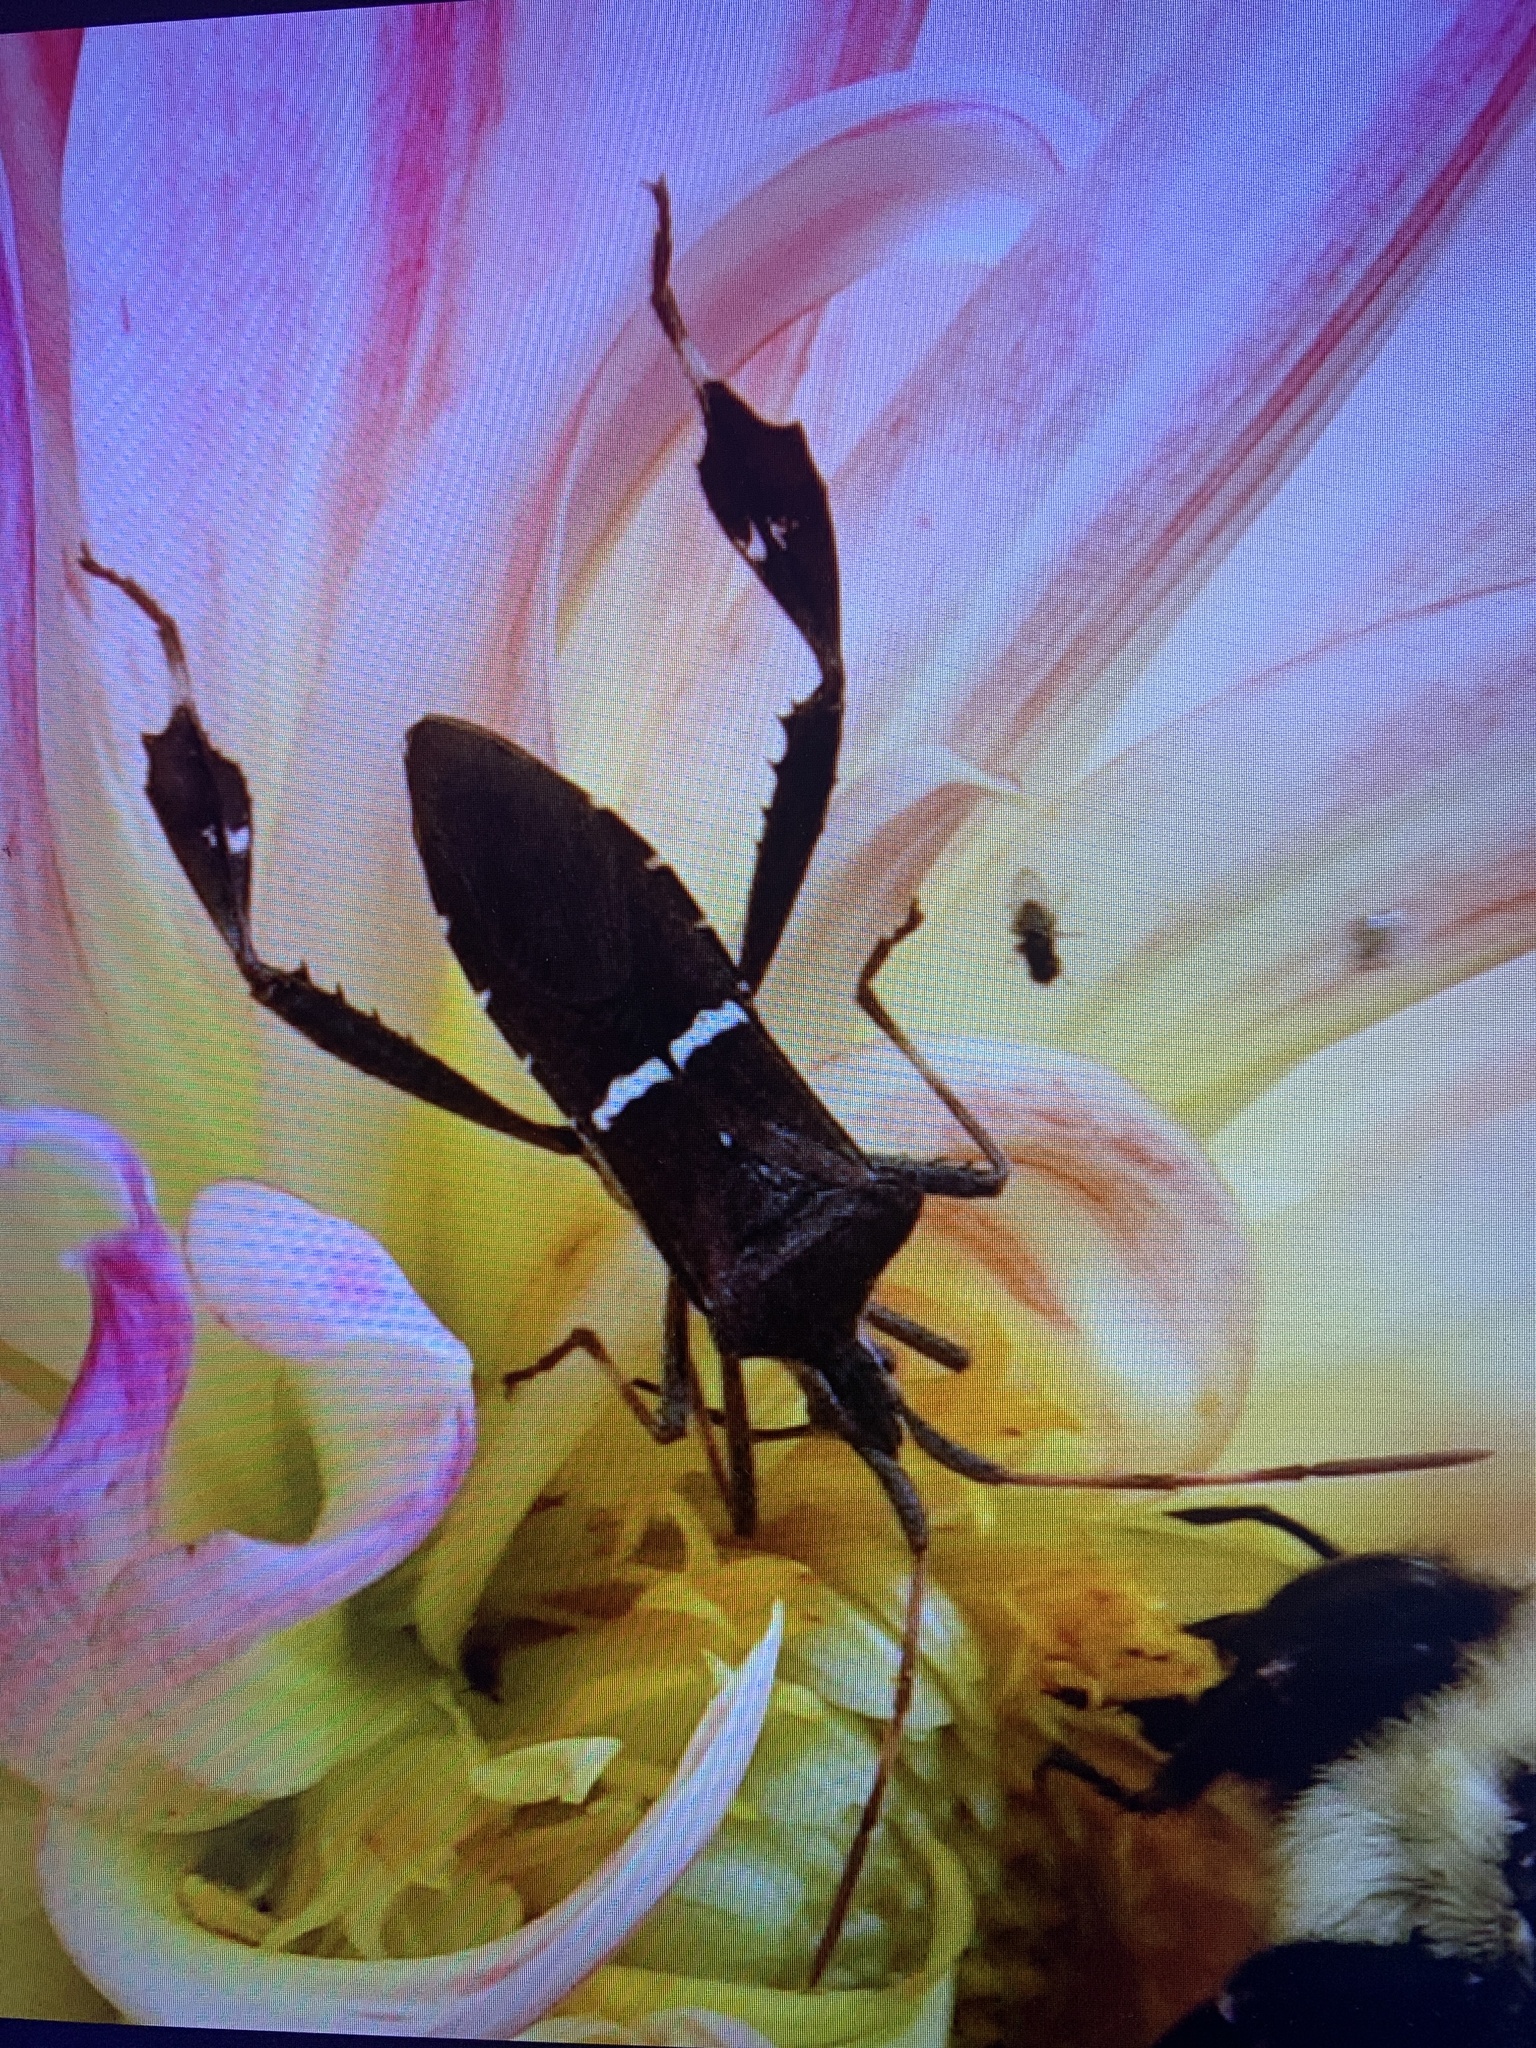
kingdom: Animalia
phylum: Arthropoda
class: Insecta
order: Hemiptera
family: Coreidae
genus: Leptoglossus
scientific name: Leptoglossus phyllopus
